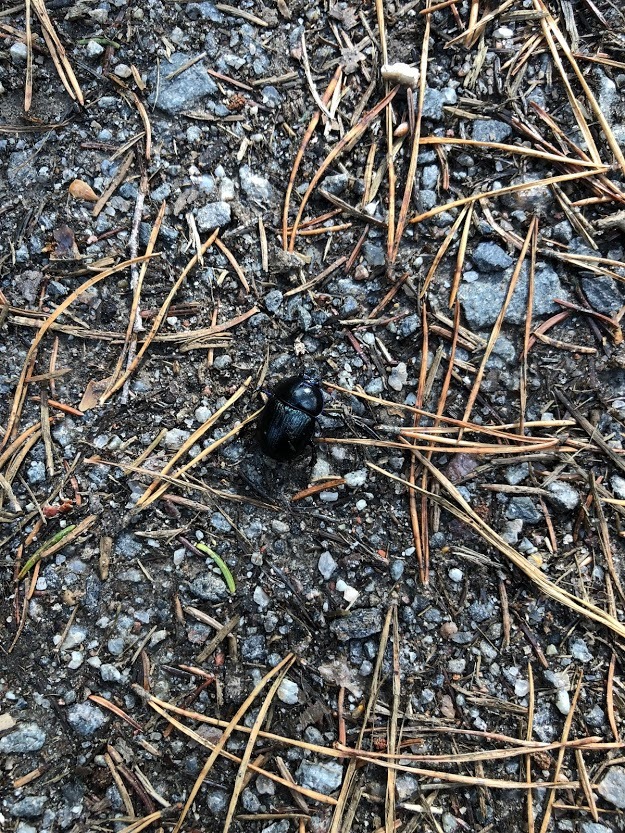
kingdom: Animalia
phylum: Arthropoda
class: Insecta
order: Coleoptera
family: Geotrupidae
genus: Anoplotrupes
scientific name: Anoplotrupes stercorosus
